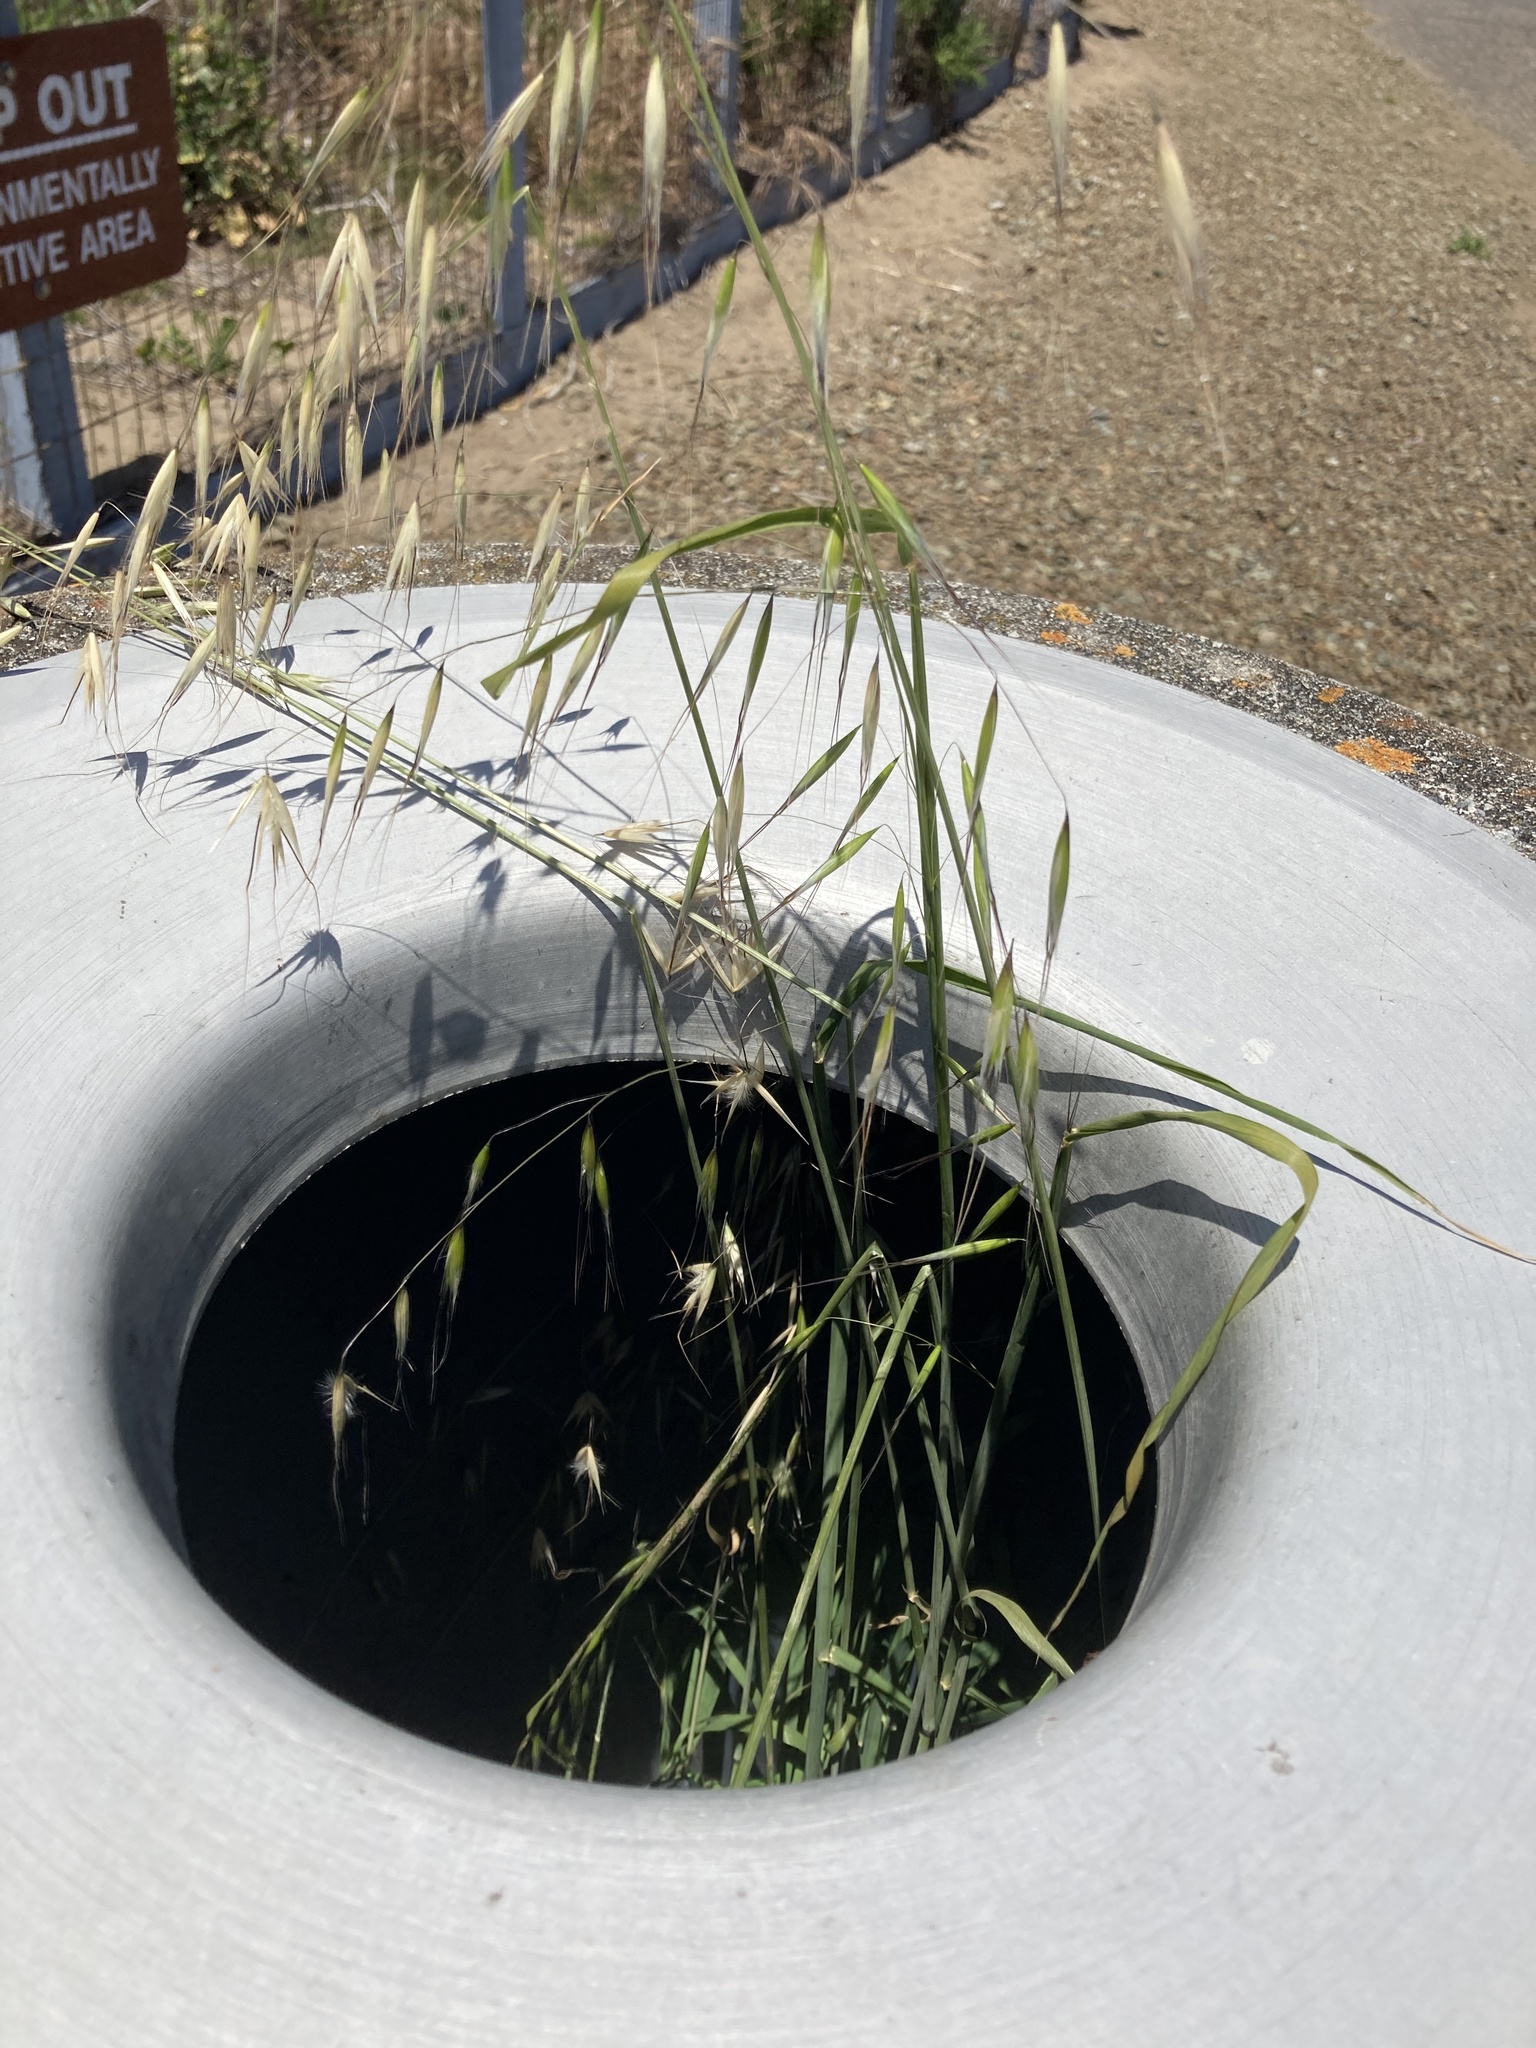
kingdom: Plantae
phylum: Tracheophyta
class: Liliopsida
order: Poales
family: Poaceae
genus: Avena
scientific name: Avena barbata
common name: Slender oat
